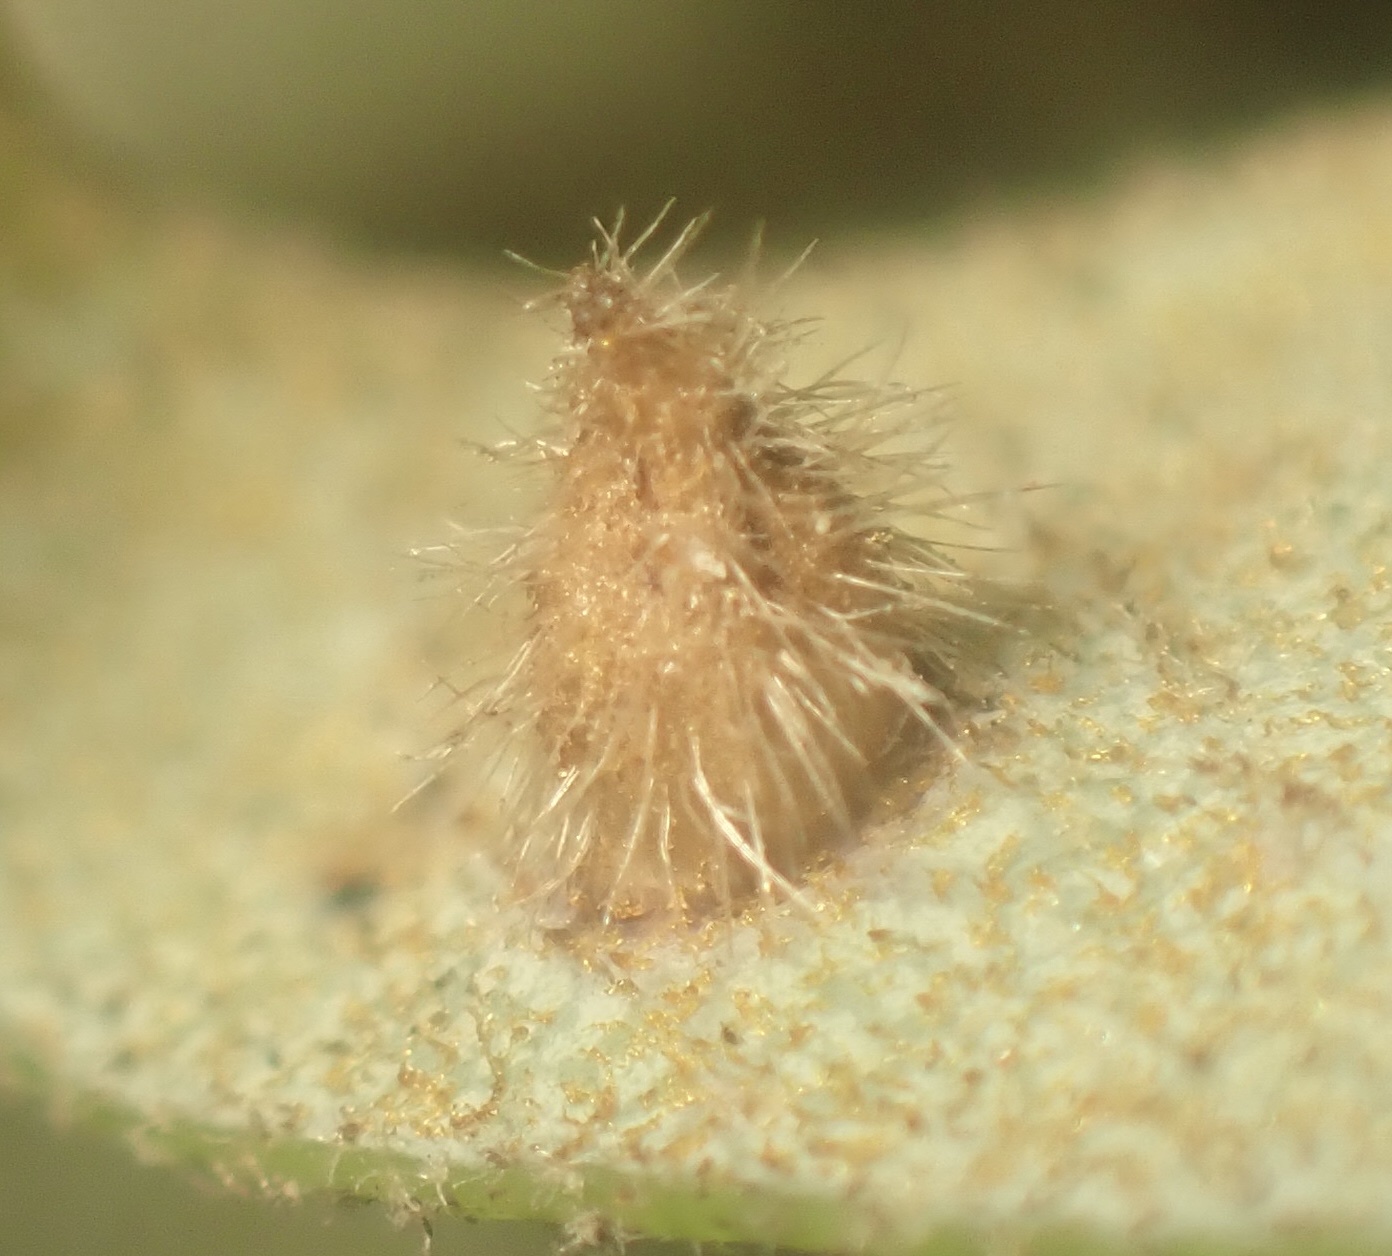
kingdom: Animalia
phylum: Arthropoda
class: Insecta
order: Hymenoptera
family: Cynipidae
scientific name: Cynipidae
